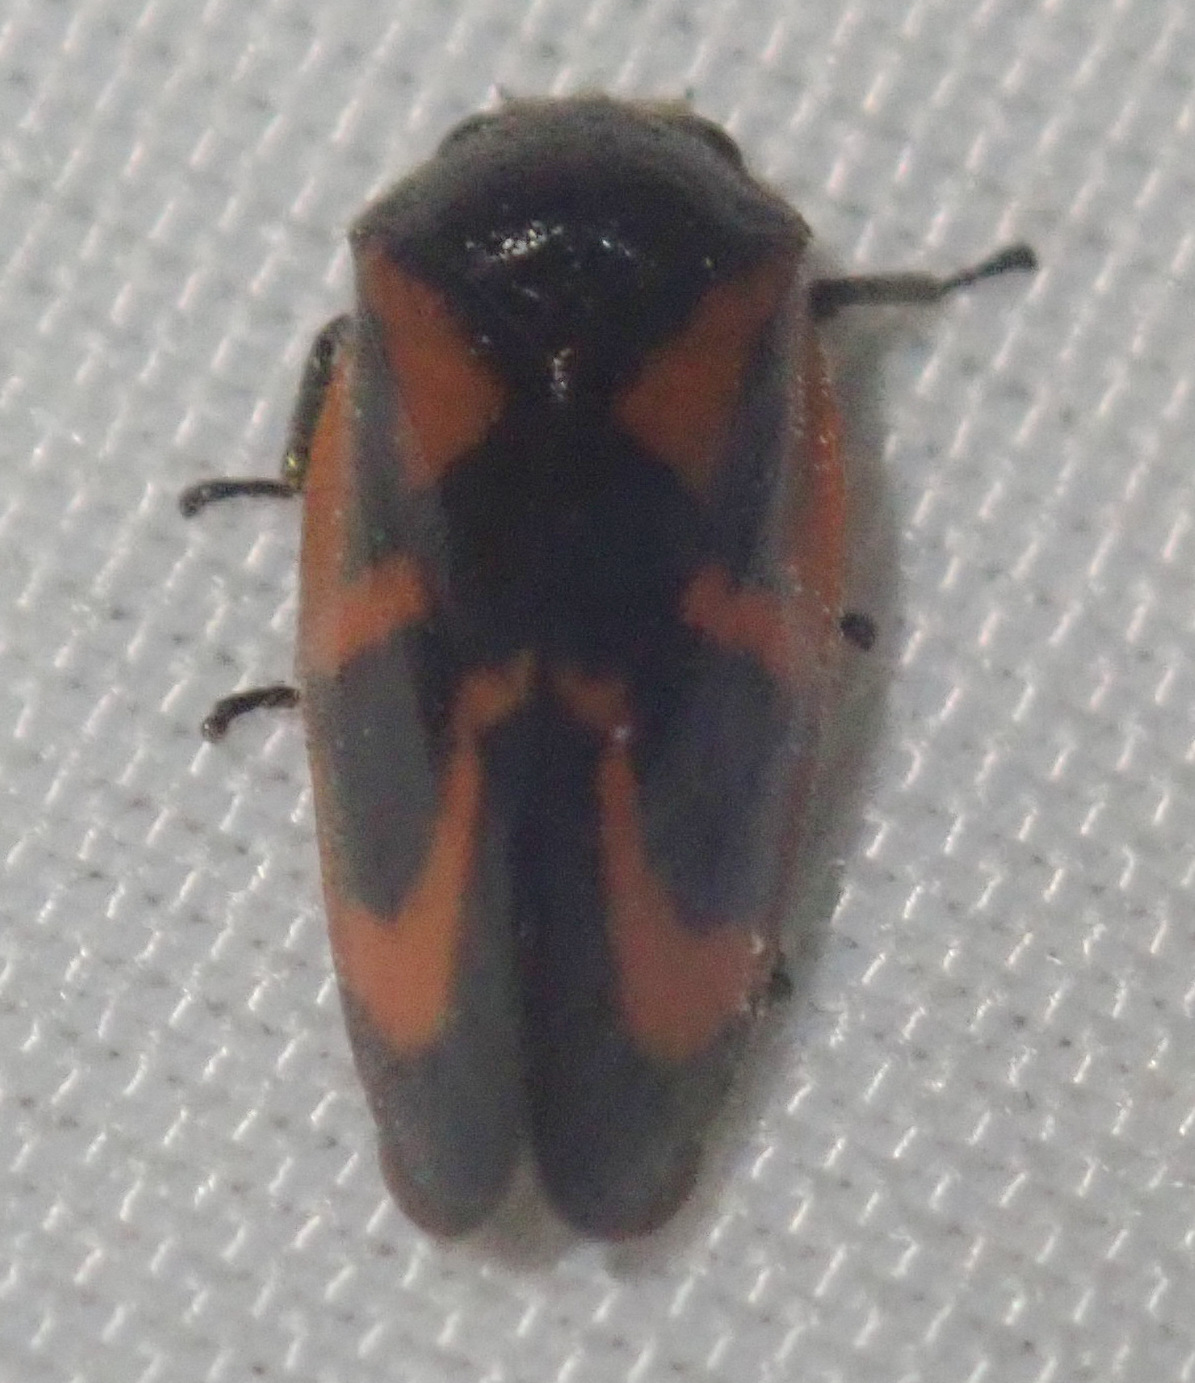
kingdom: Animalia
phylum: Arthropoda
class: Insecta
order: Hemiptera
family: Cercopidae
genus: Haematoloma
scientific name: Haematoloma dorsata
